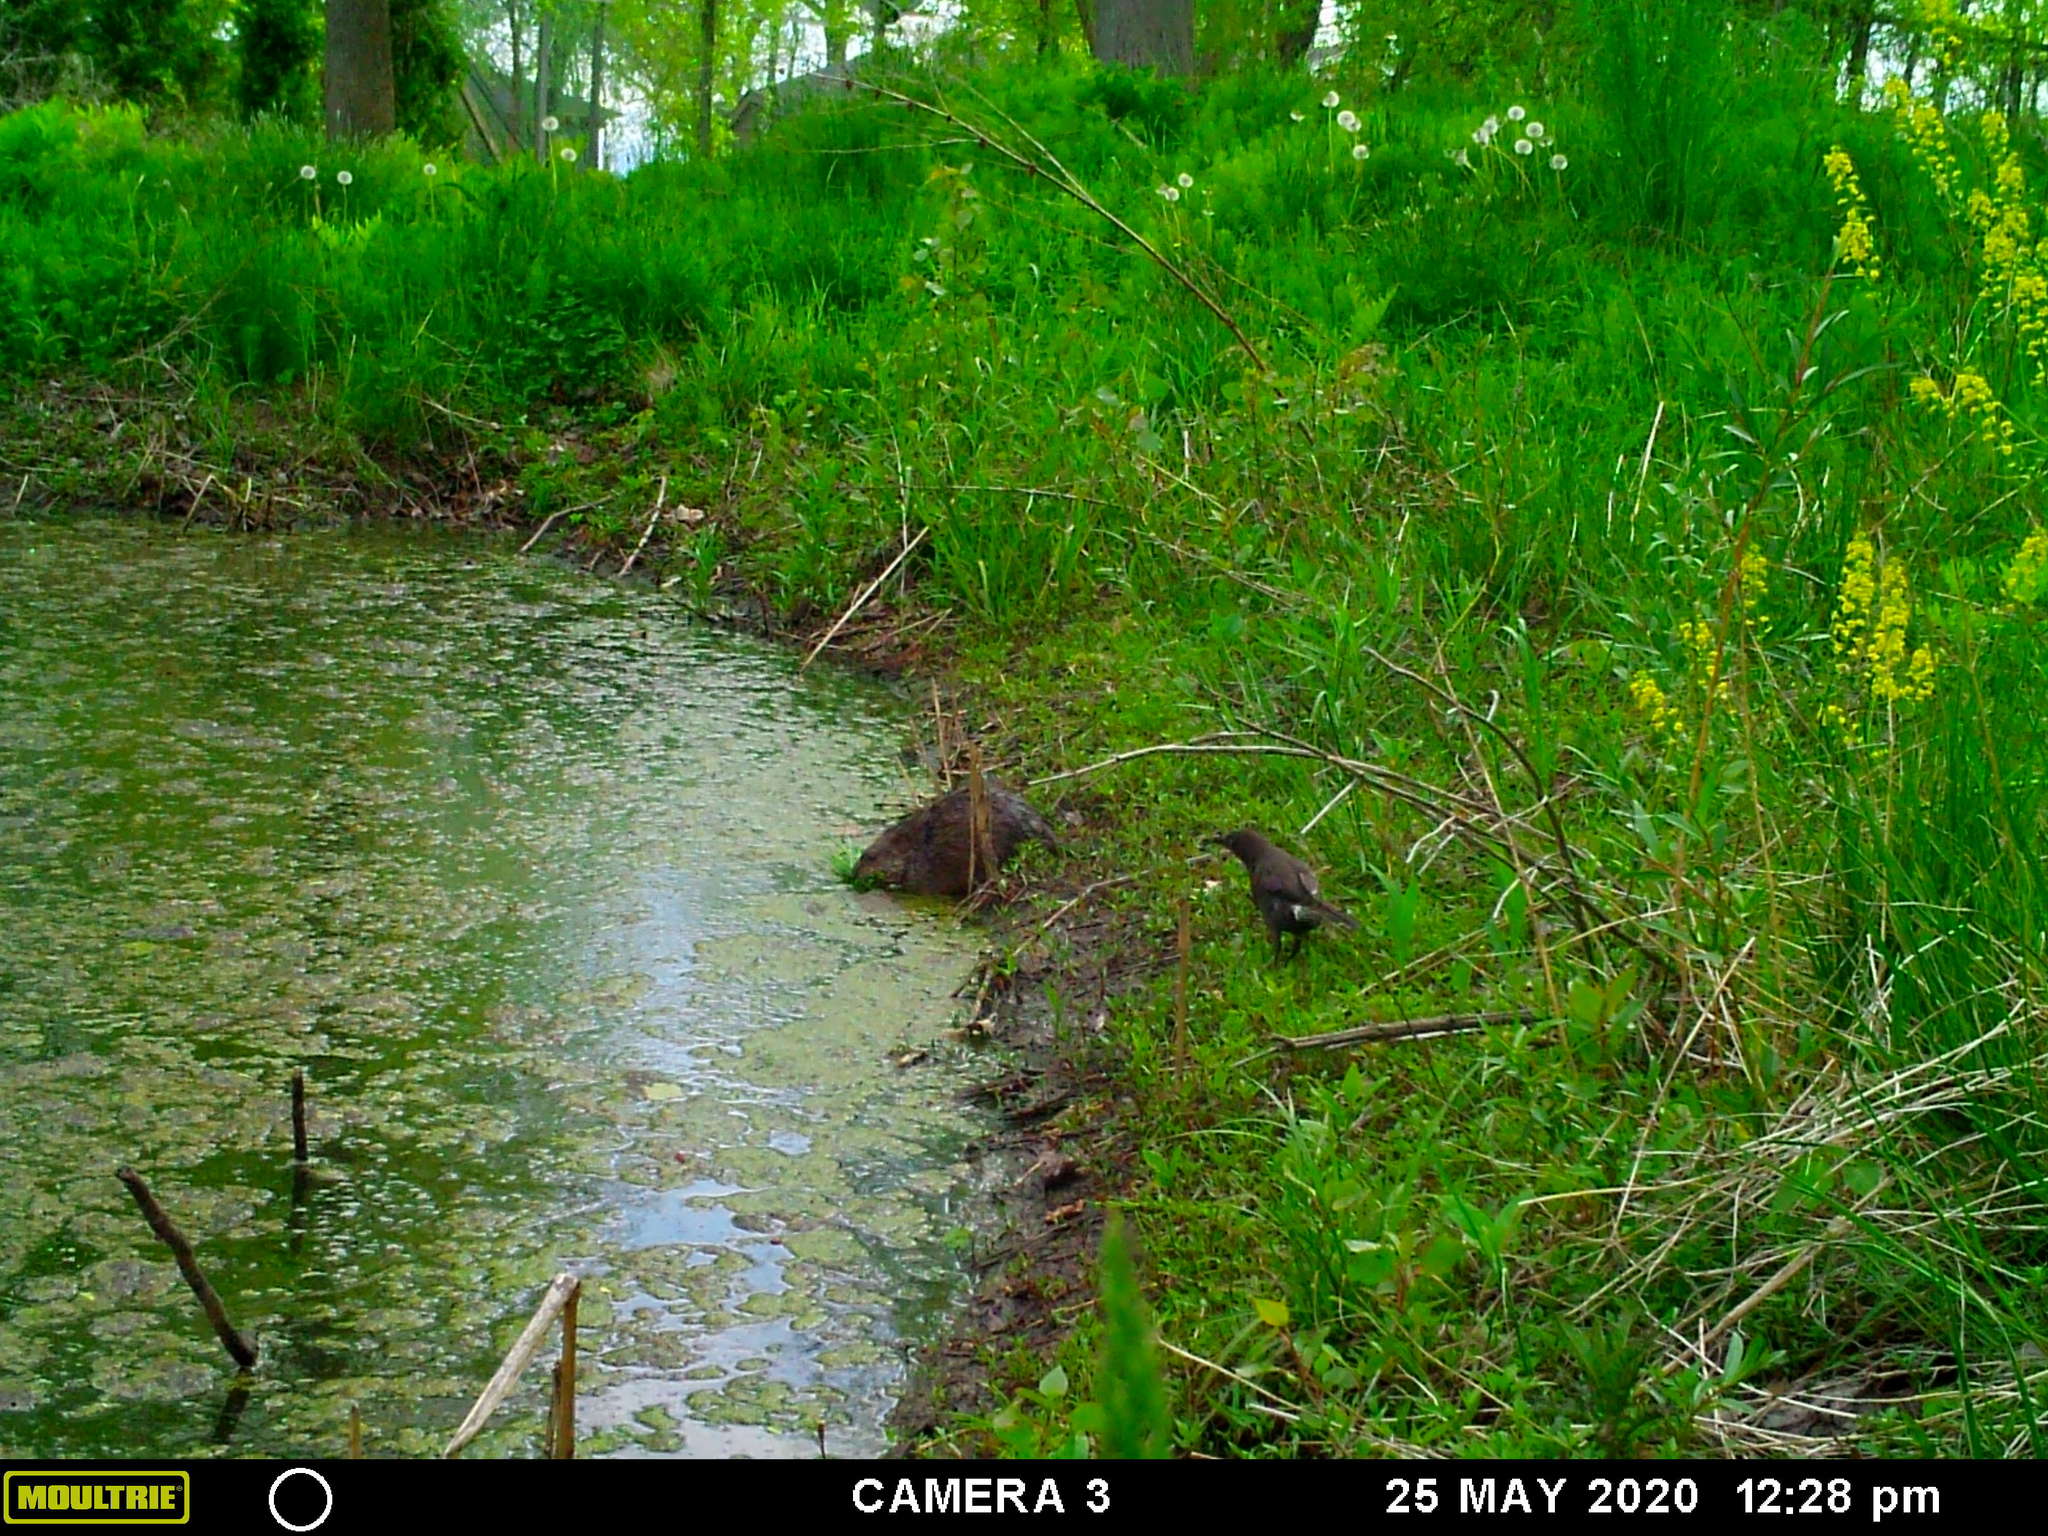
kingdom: Animalia
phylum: Chordata
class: Aves
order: Passeriformes
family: Icteridae
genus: Quiscalus
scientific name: Quiscalus quiscula
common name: Common grackle
